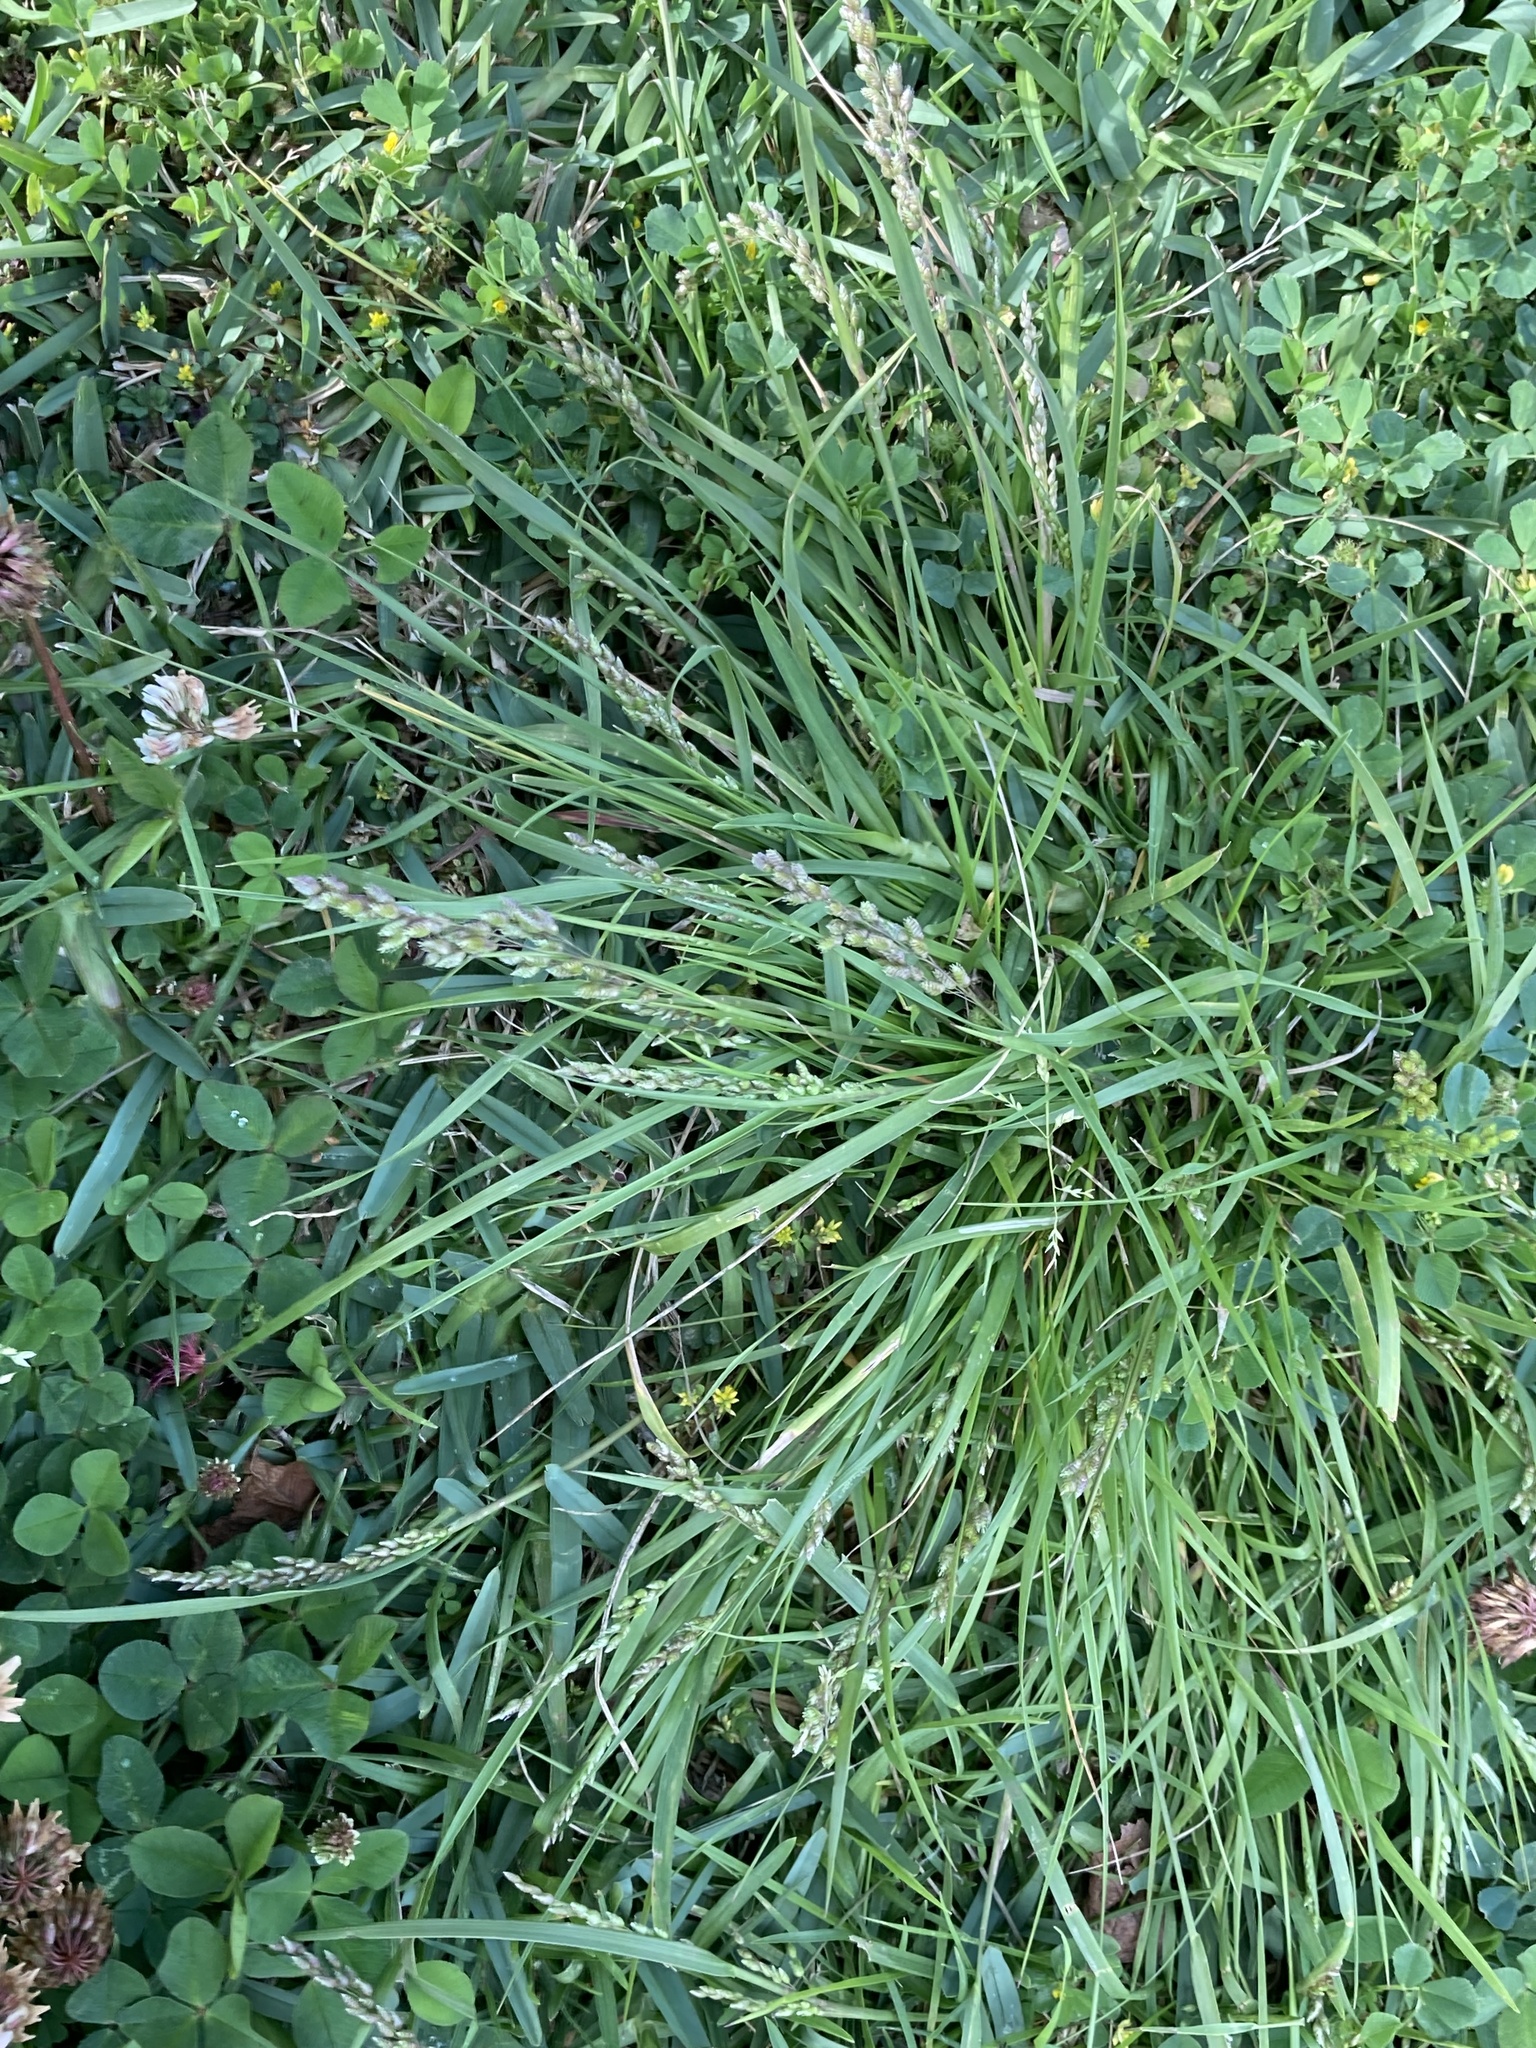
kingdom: Plantae
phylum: Tracheophyta
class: Liliopsida
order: Poales
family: Poaceae
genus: Chascolytrum
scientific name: Chascolytrum subaristatum
